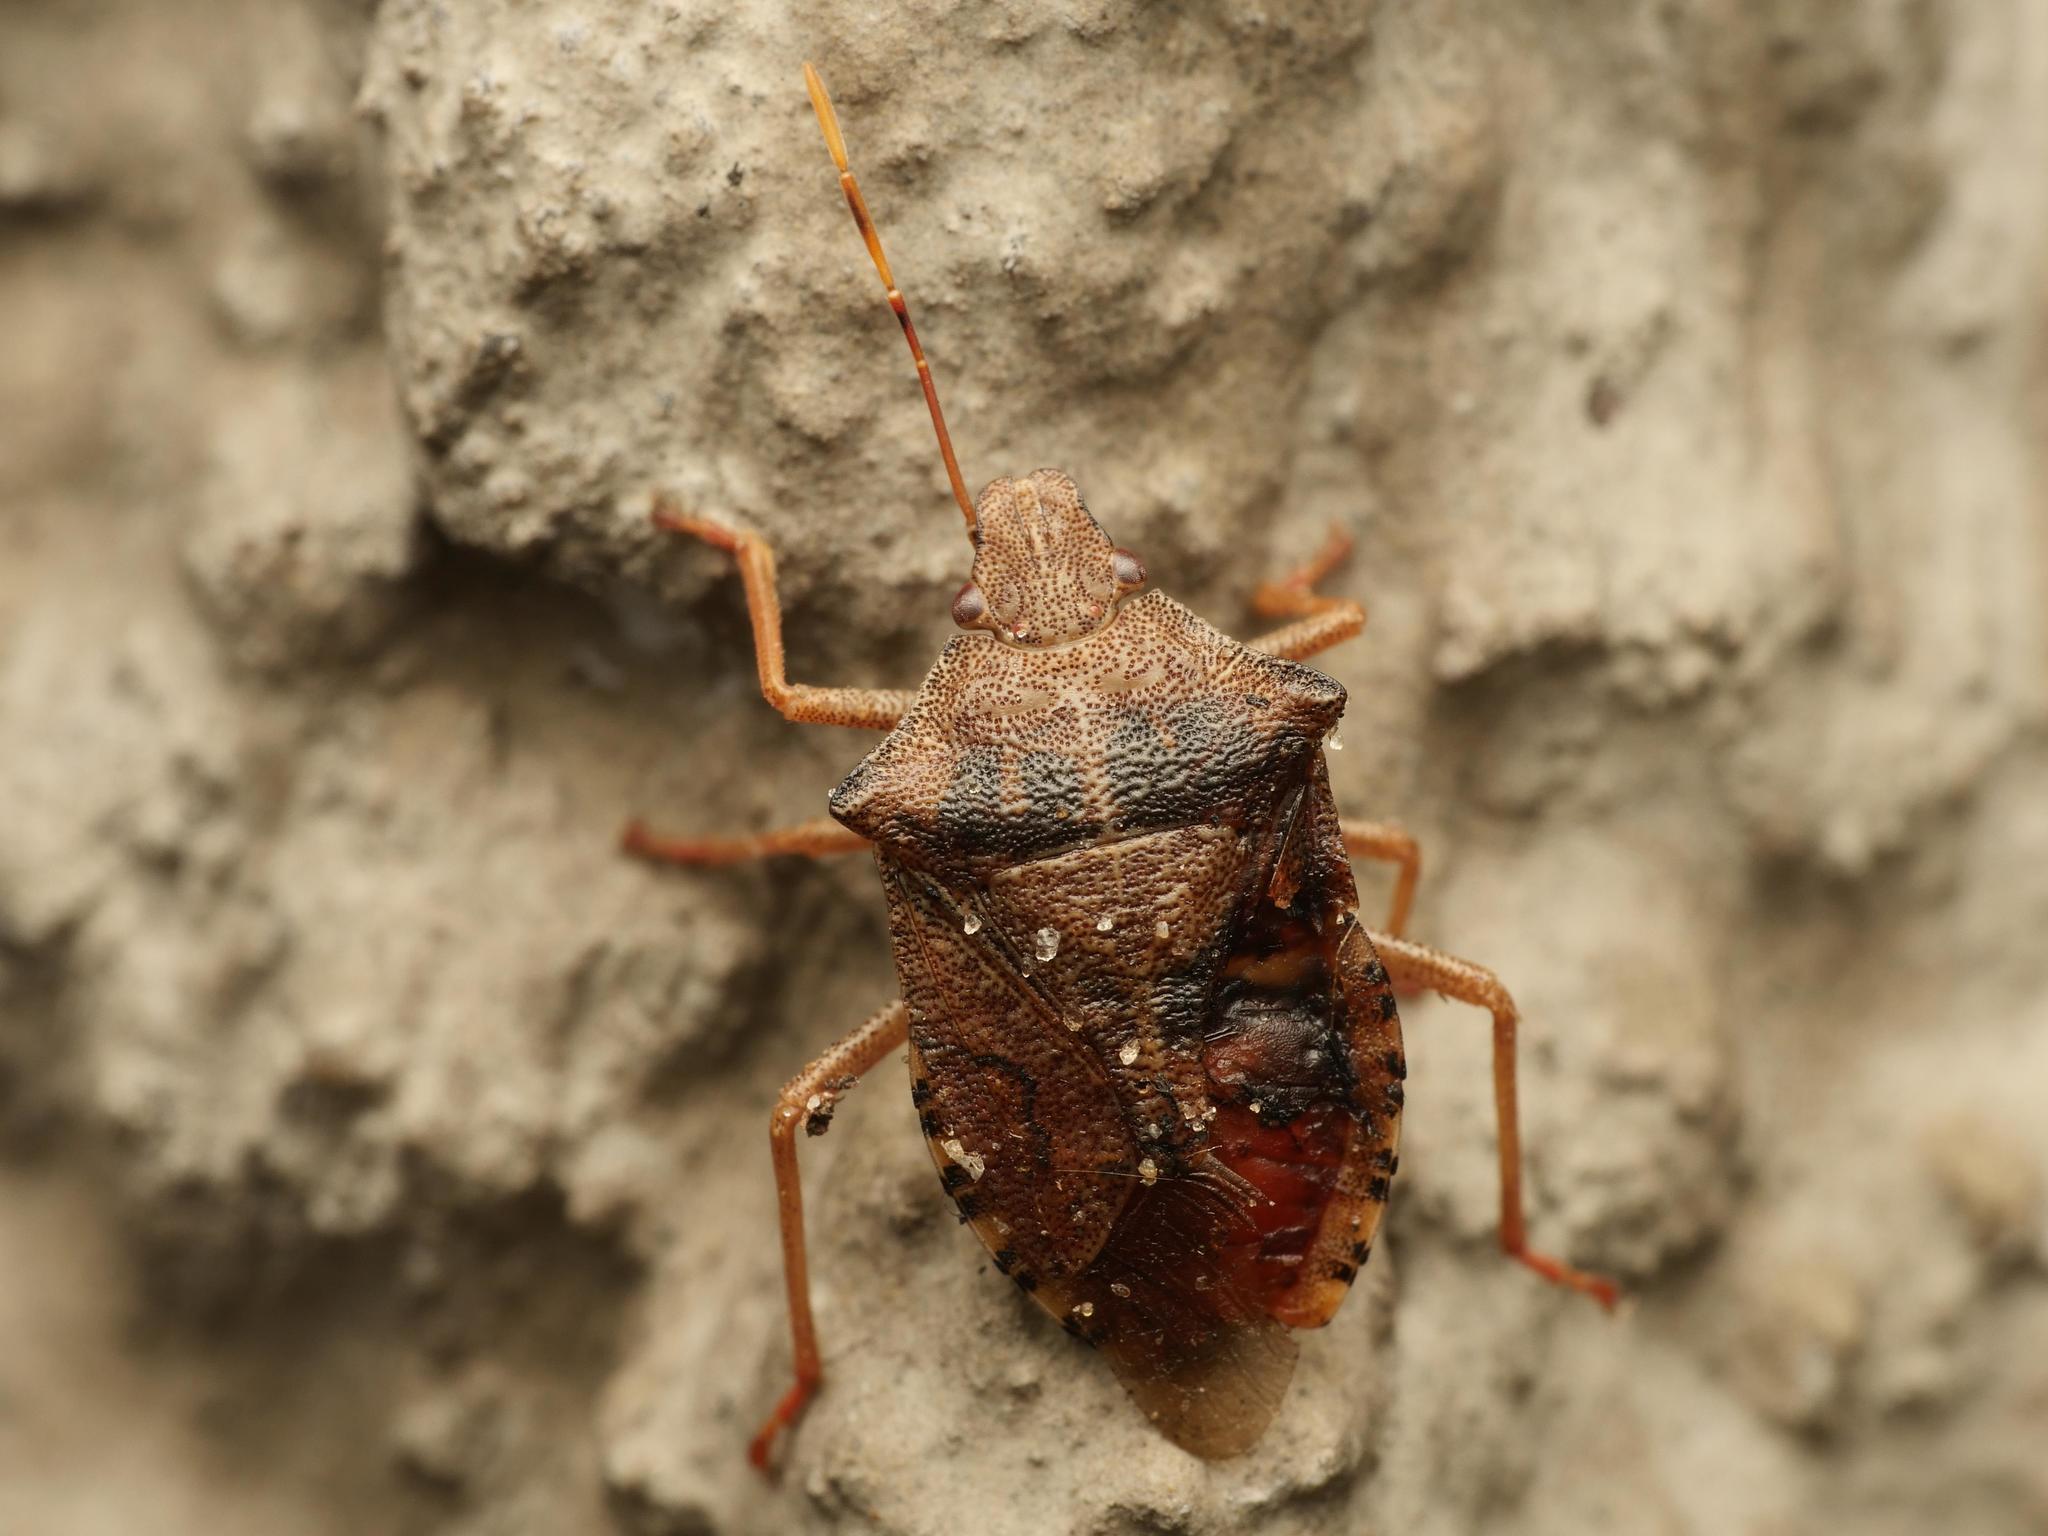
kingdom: Animalia
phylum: Arthropoda
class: Insecta
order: Hemiptera
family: Pentatomidae
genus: Arma
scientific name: Arma custos
